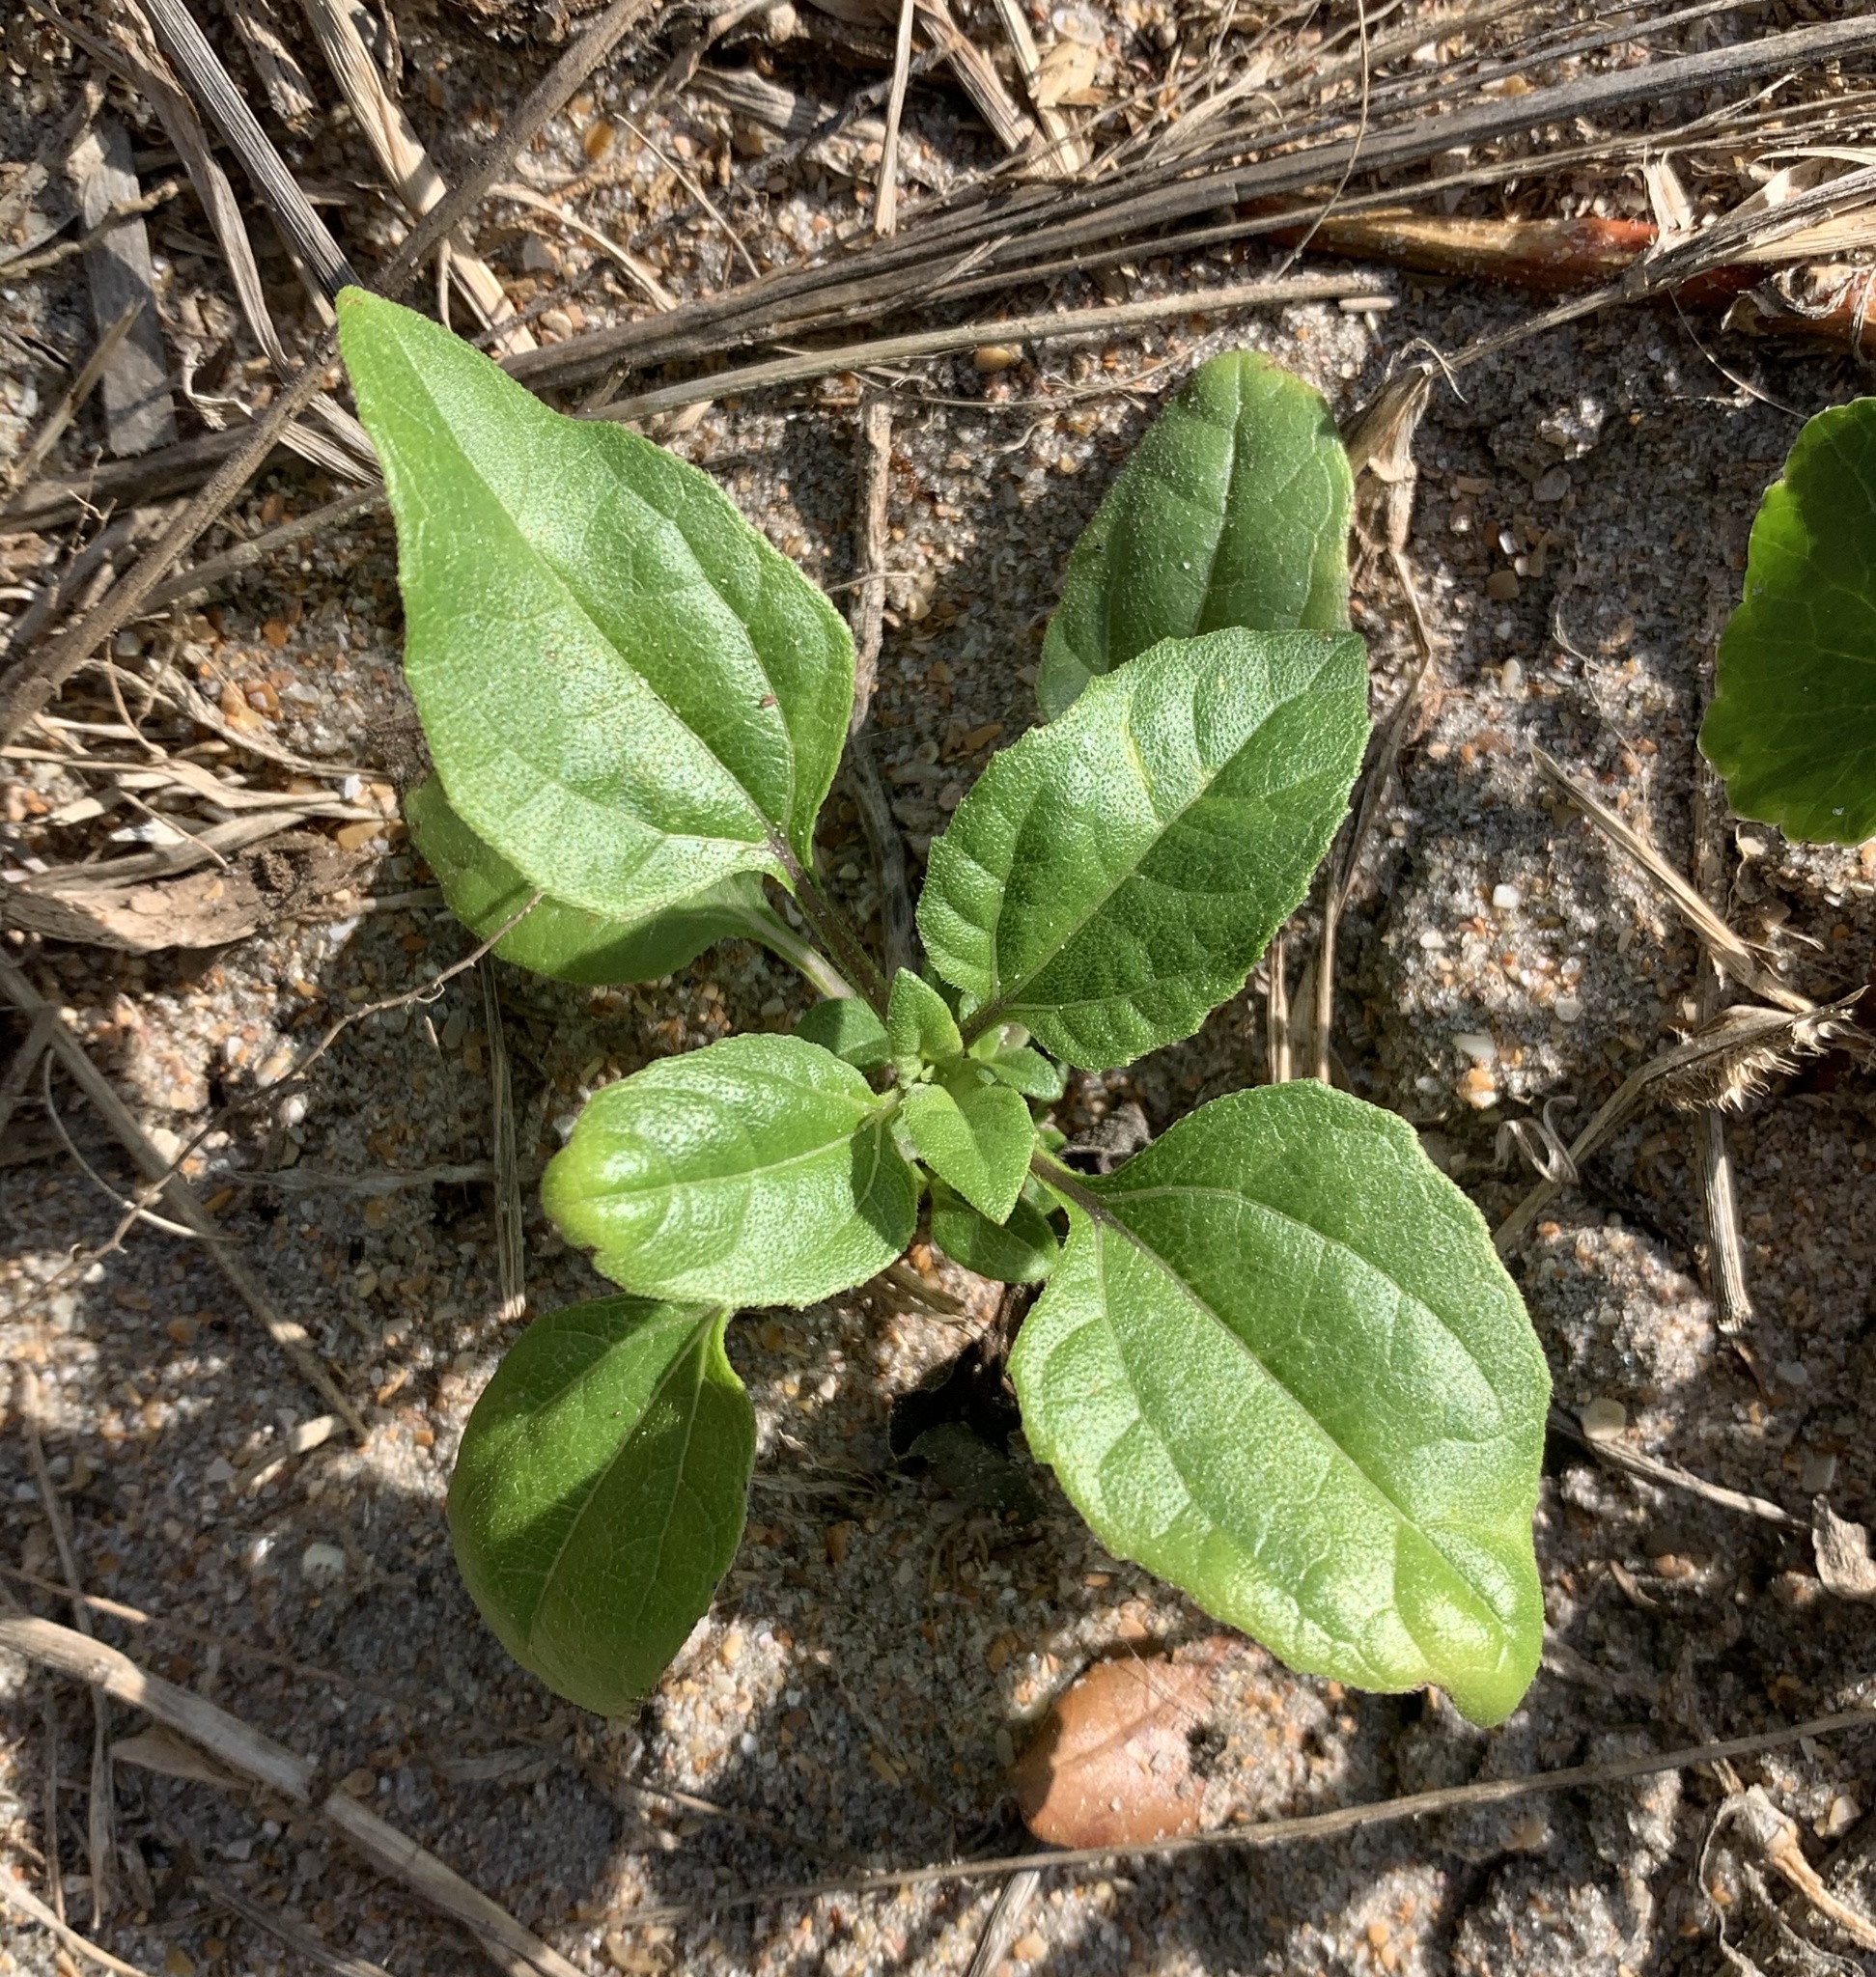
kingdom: Plantae
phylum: Tracheophyta
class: Magnoliopsida
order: Asterales
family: Asteraceae
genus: Helianthus
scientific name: Helianthus debilis
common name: Weak sunflower
